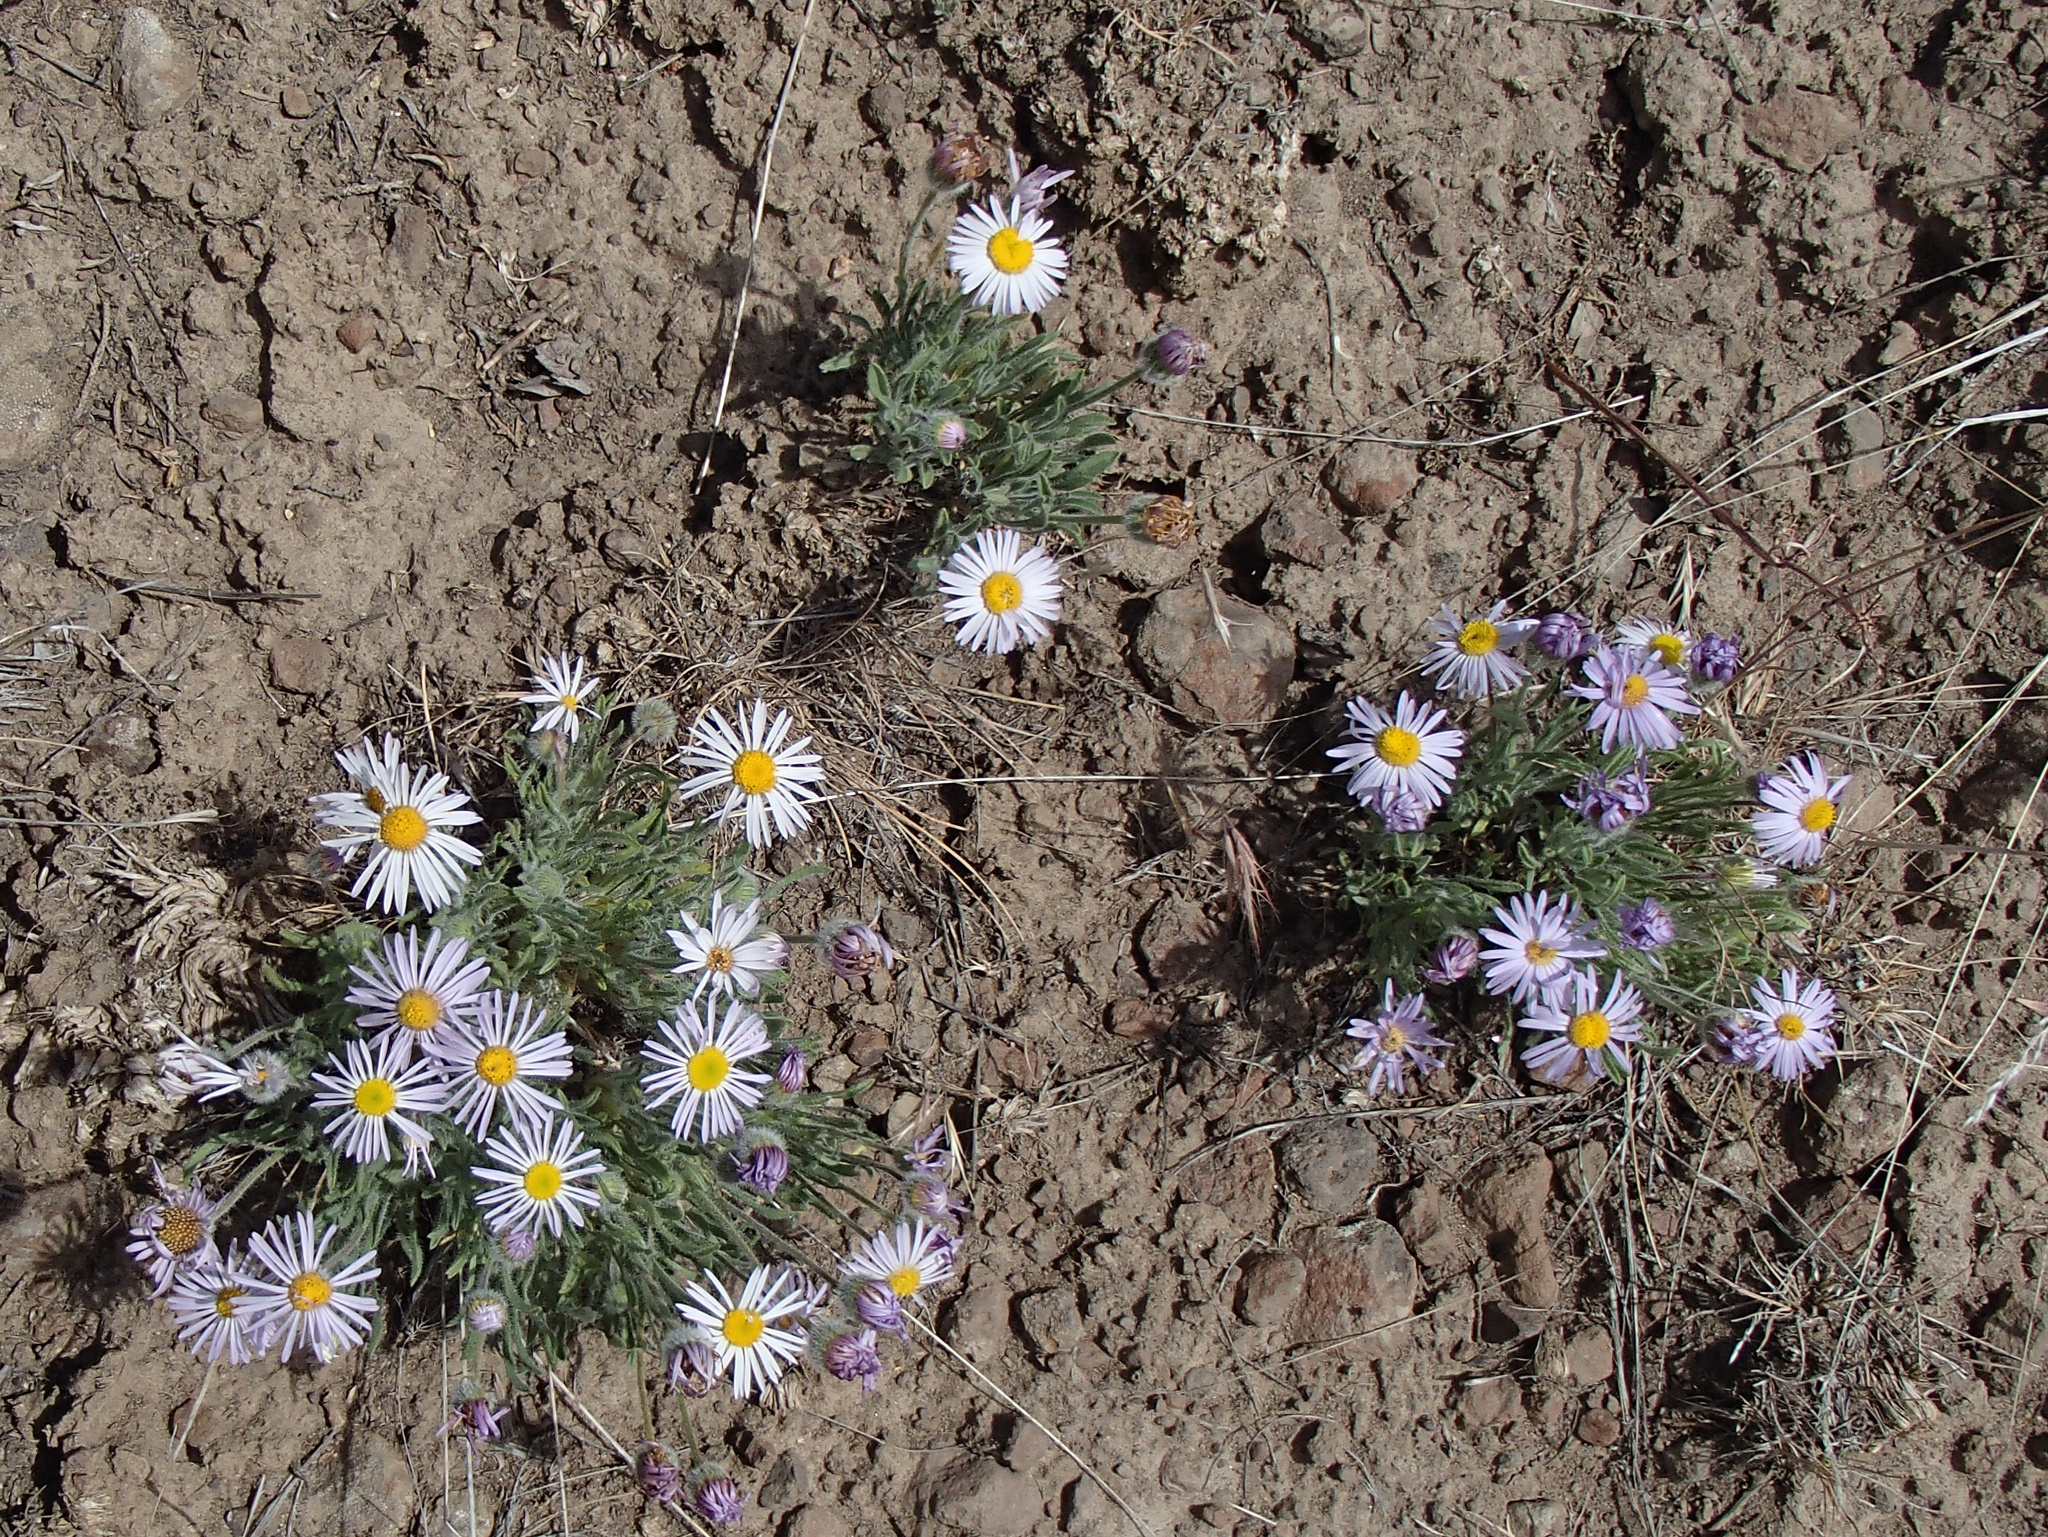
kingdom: Plantae
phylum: Tracheophyta
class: Magnoliopsida
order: Asterales
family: Asteraceae
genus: Erigeron
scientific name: Erigeron poliospermus
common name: Cushion fleabane
